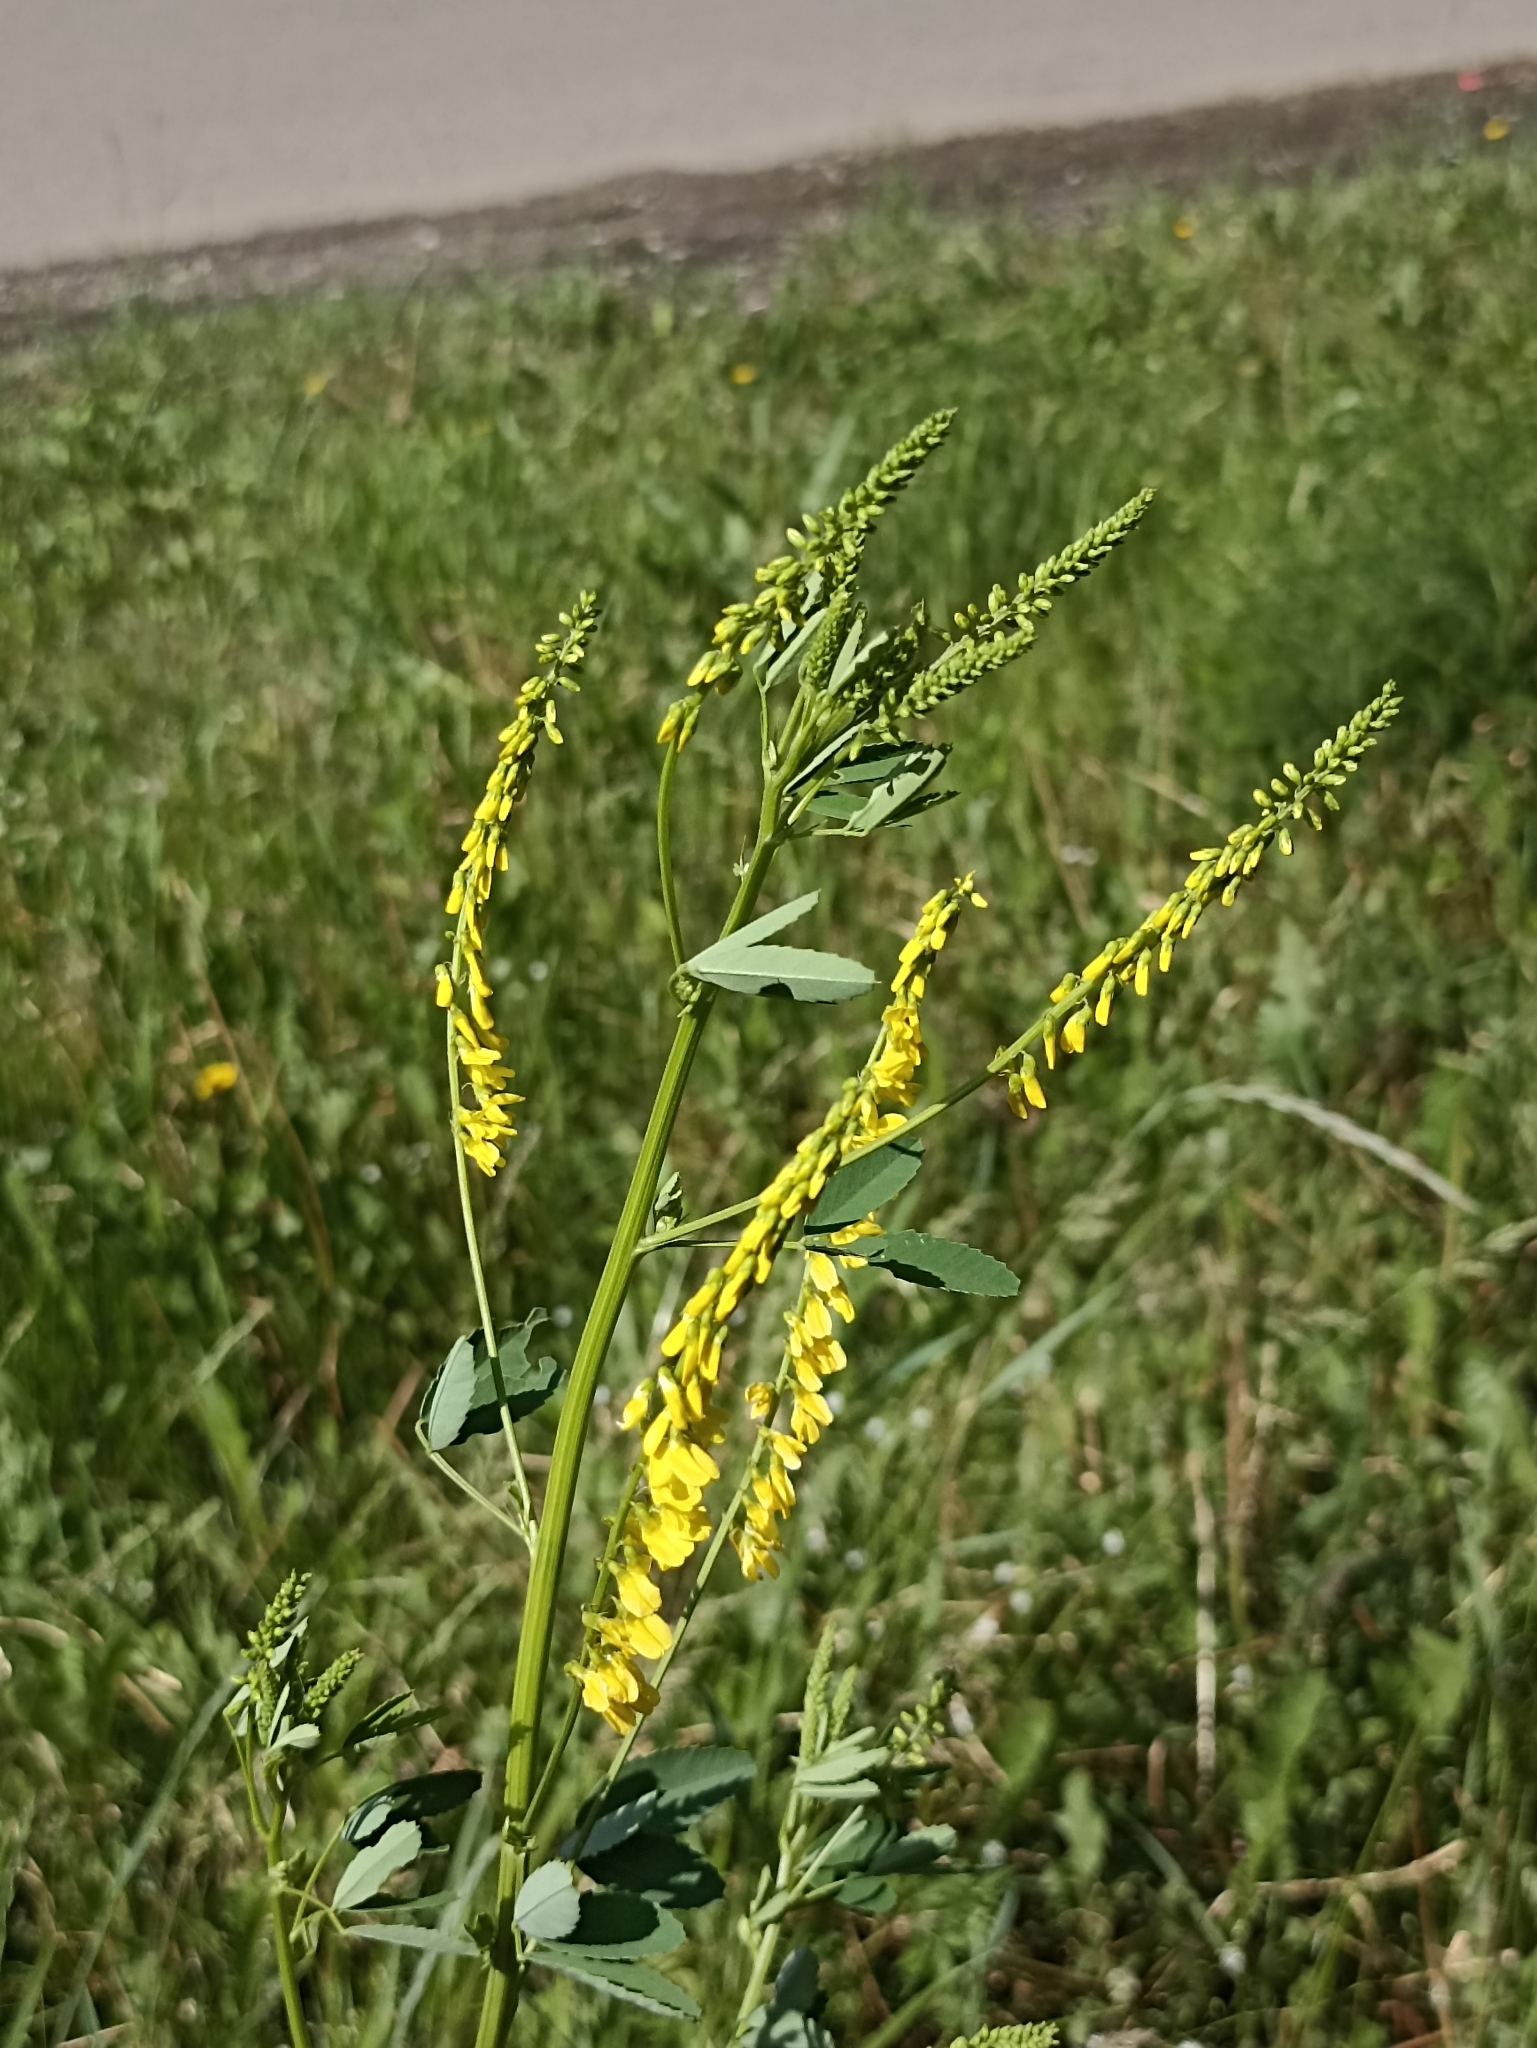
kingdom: Plantae
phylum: Tracheophyta
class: Magnoliopsida
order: Fabales
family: Fabaceae
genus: Melilotus
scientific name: Melilotus officinalis
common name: Sweetclover
